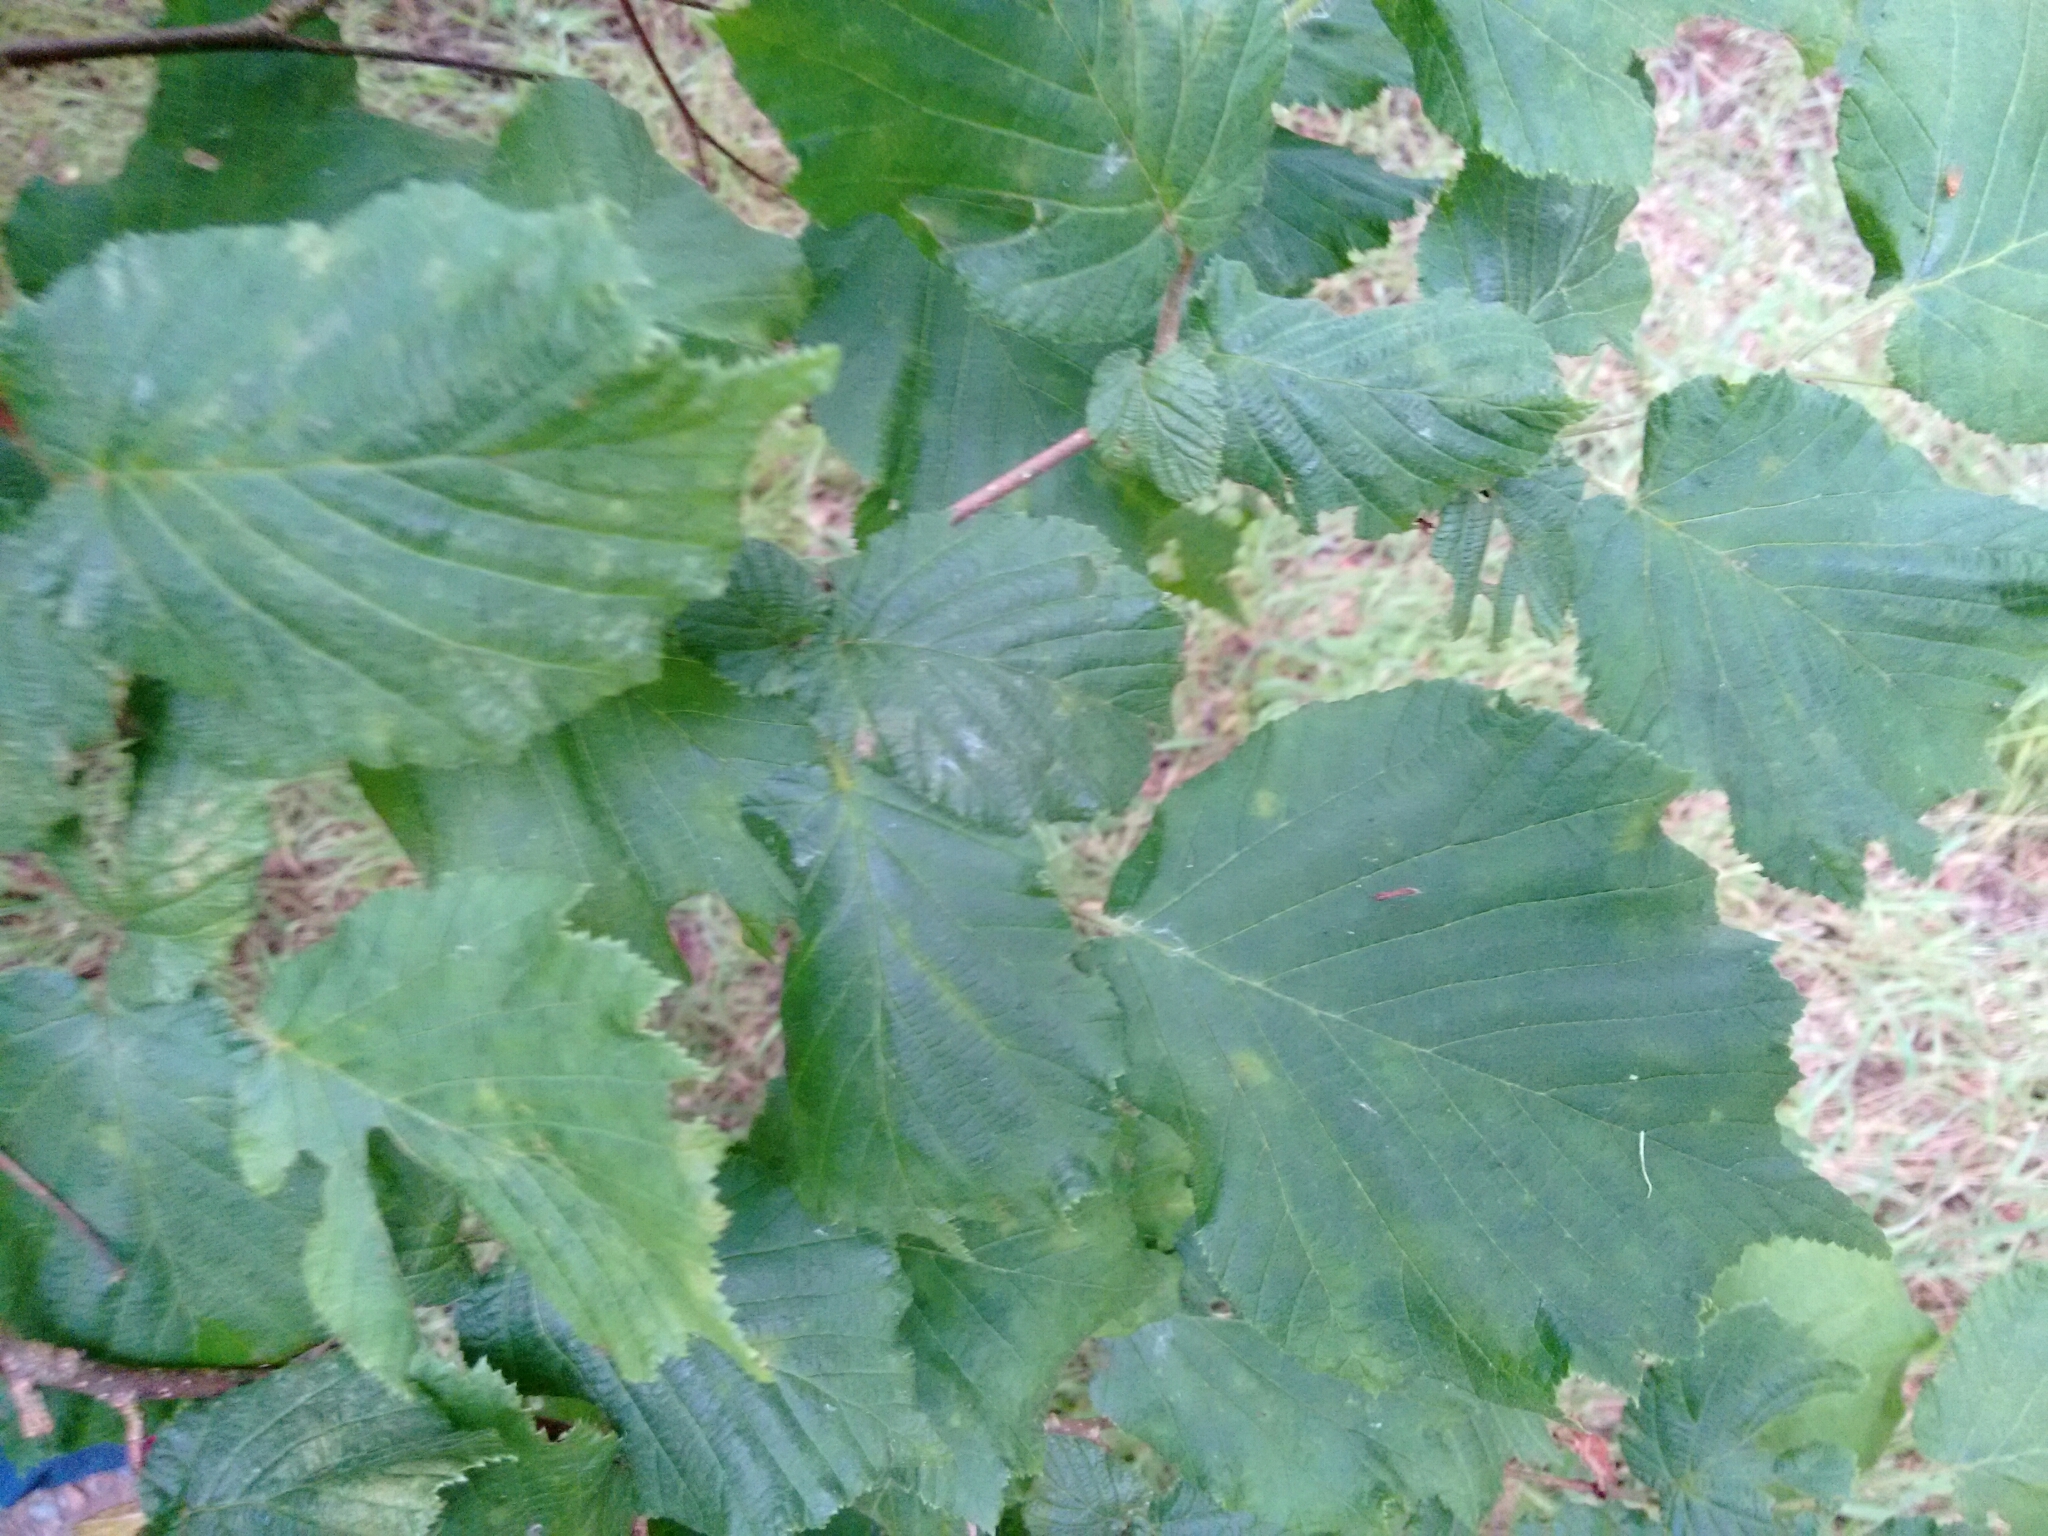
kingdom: Plantae
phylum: Tracheophyta
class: Magnoliopsida
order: Fagales
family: Betulaceae
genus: Corylus
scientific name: Corylus avellana
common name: European hazel
